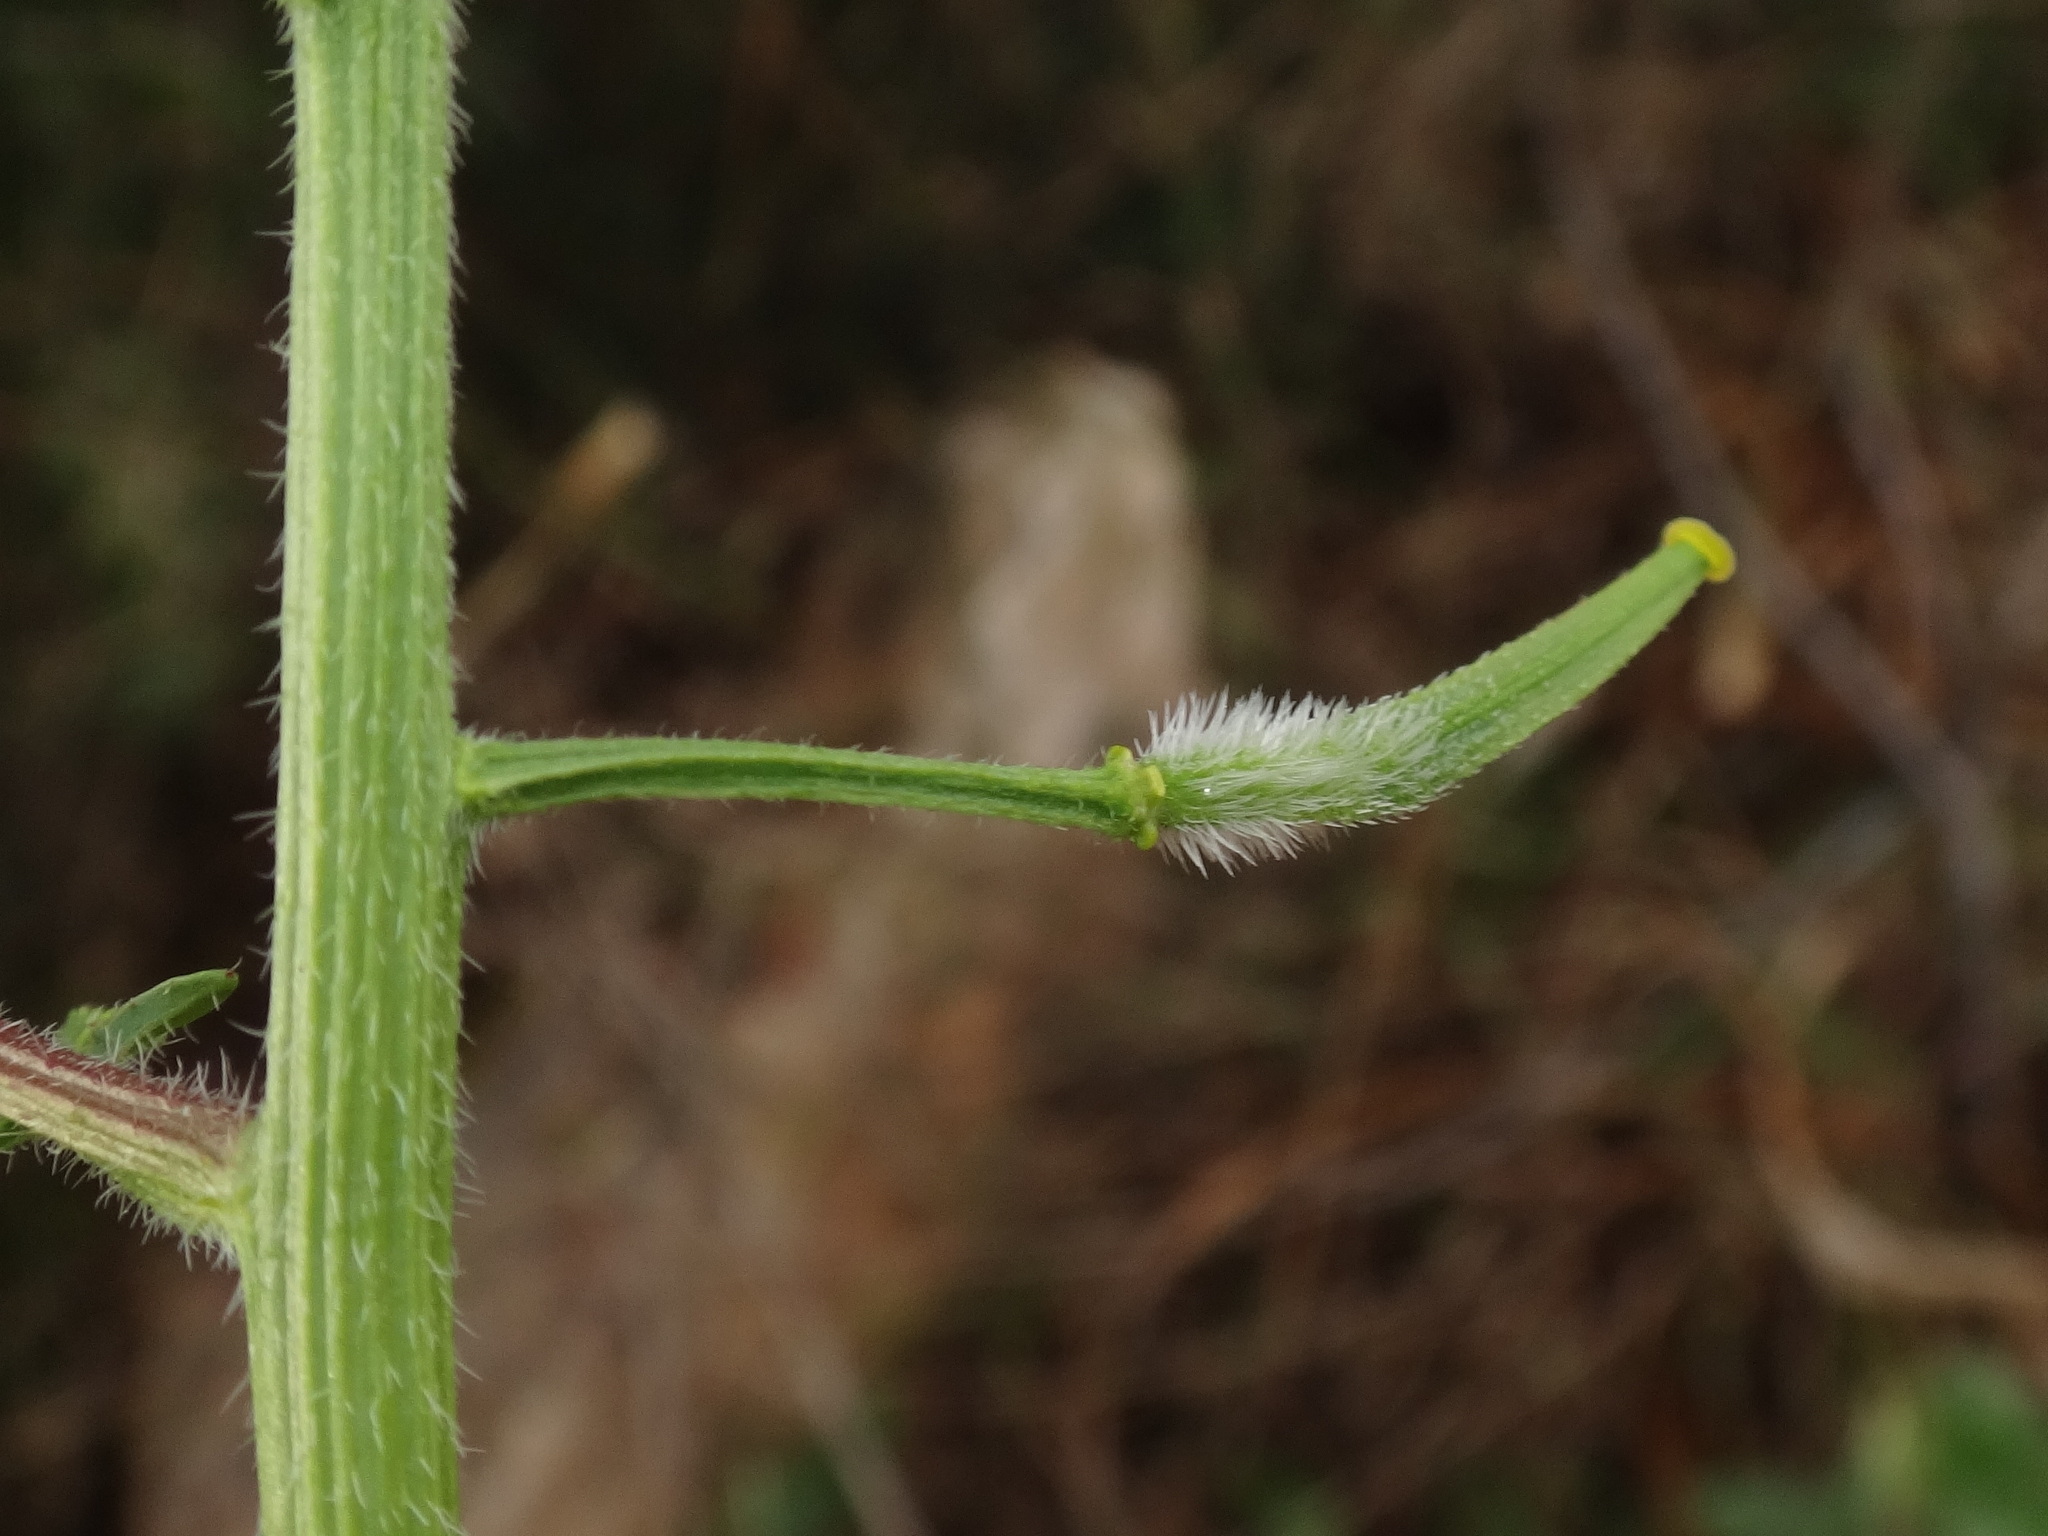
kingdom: Plantae
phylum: Tracheophyta
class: Magnoliopsida
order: Brassicales
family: Brassicaceae
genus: Sinapis
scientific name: Sinapis alba
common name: White mustard
